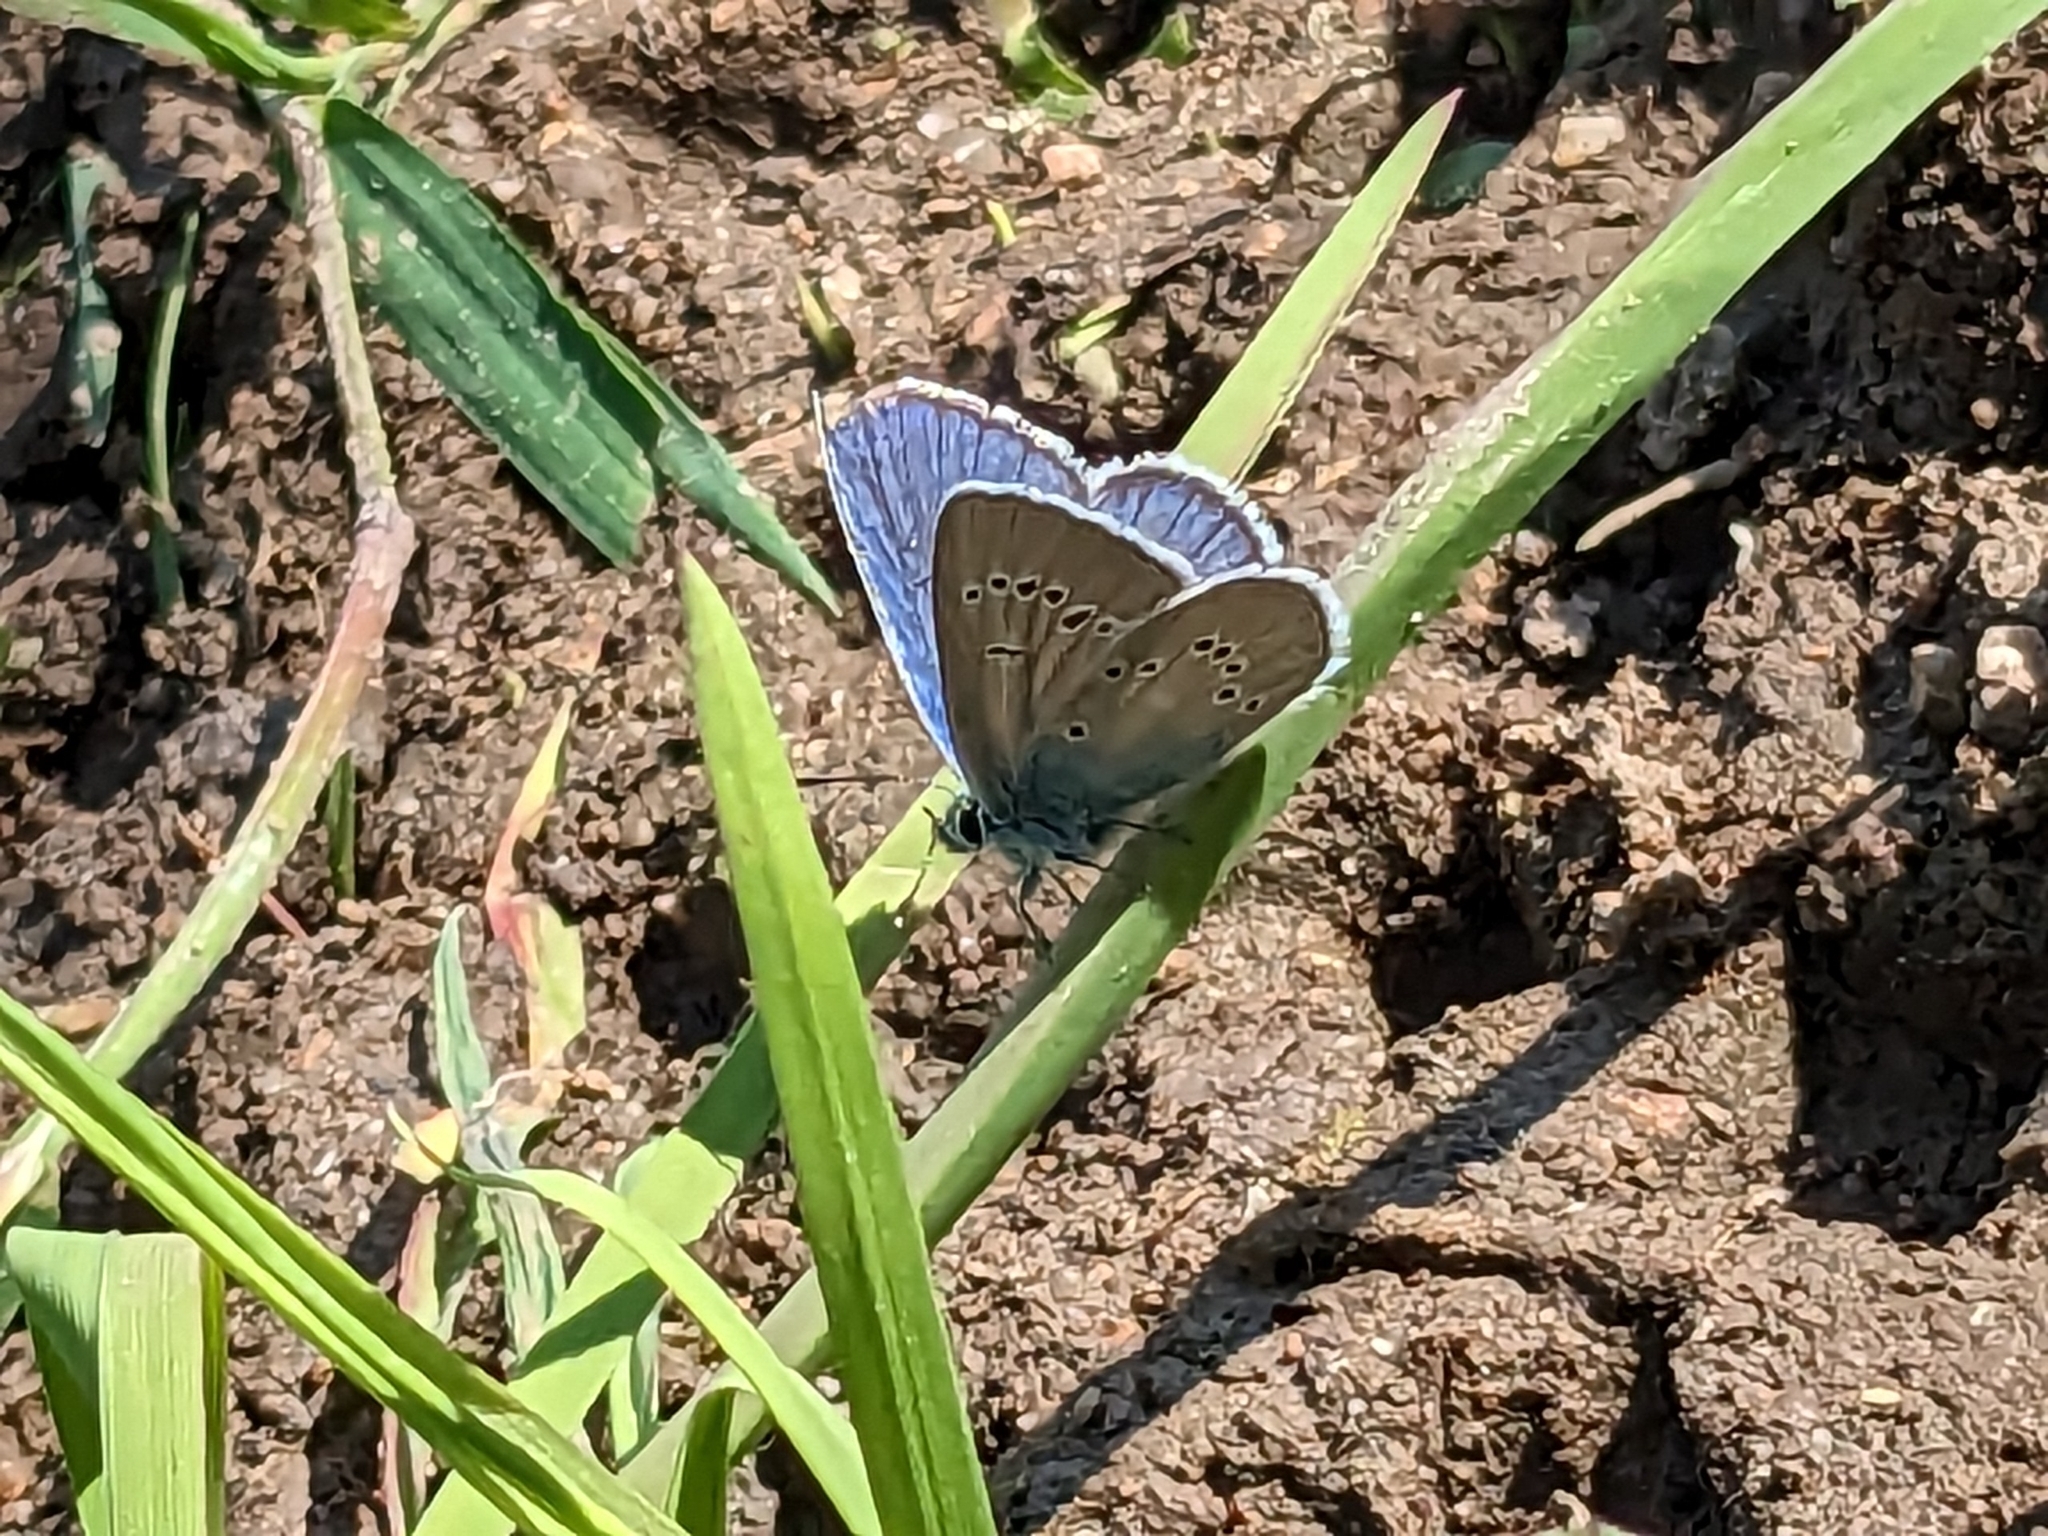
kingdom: Animalia
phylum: Arthropoda
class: Insecta
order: Lepidoptera
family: Lycaenidae
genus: Cyaniris
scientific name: Cyaniris semiargus
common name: Mazarine blue
